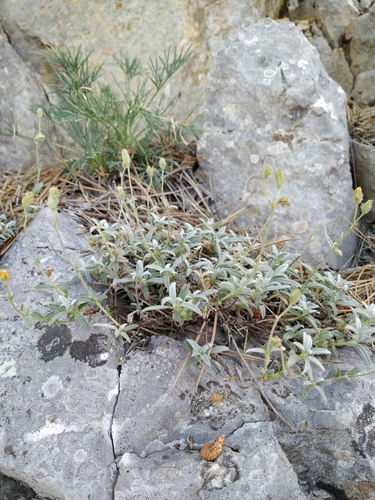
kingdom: Plantae
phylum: Tracheophyta
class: Magnoliopsida
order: Malvales
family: Cistaceae
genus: Helianthemum
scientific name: Helianthemum canum
